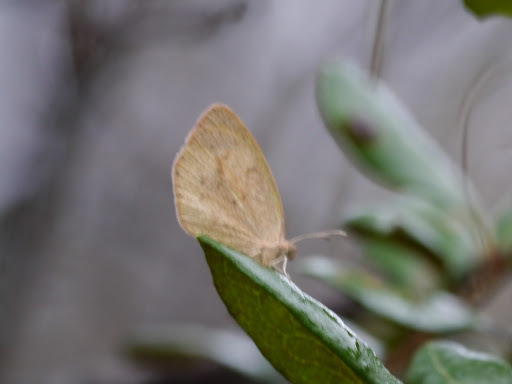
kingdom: Animalia
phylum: Arthropoda
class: Insecta
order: Lepidoptera
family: Pieridae
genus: Eurema
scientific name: Eurema daira
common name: Barred sulphur
